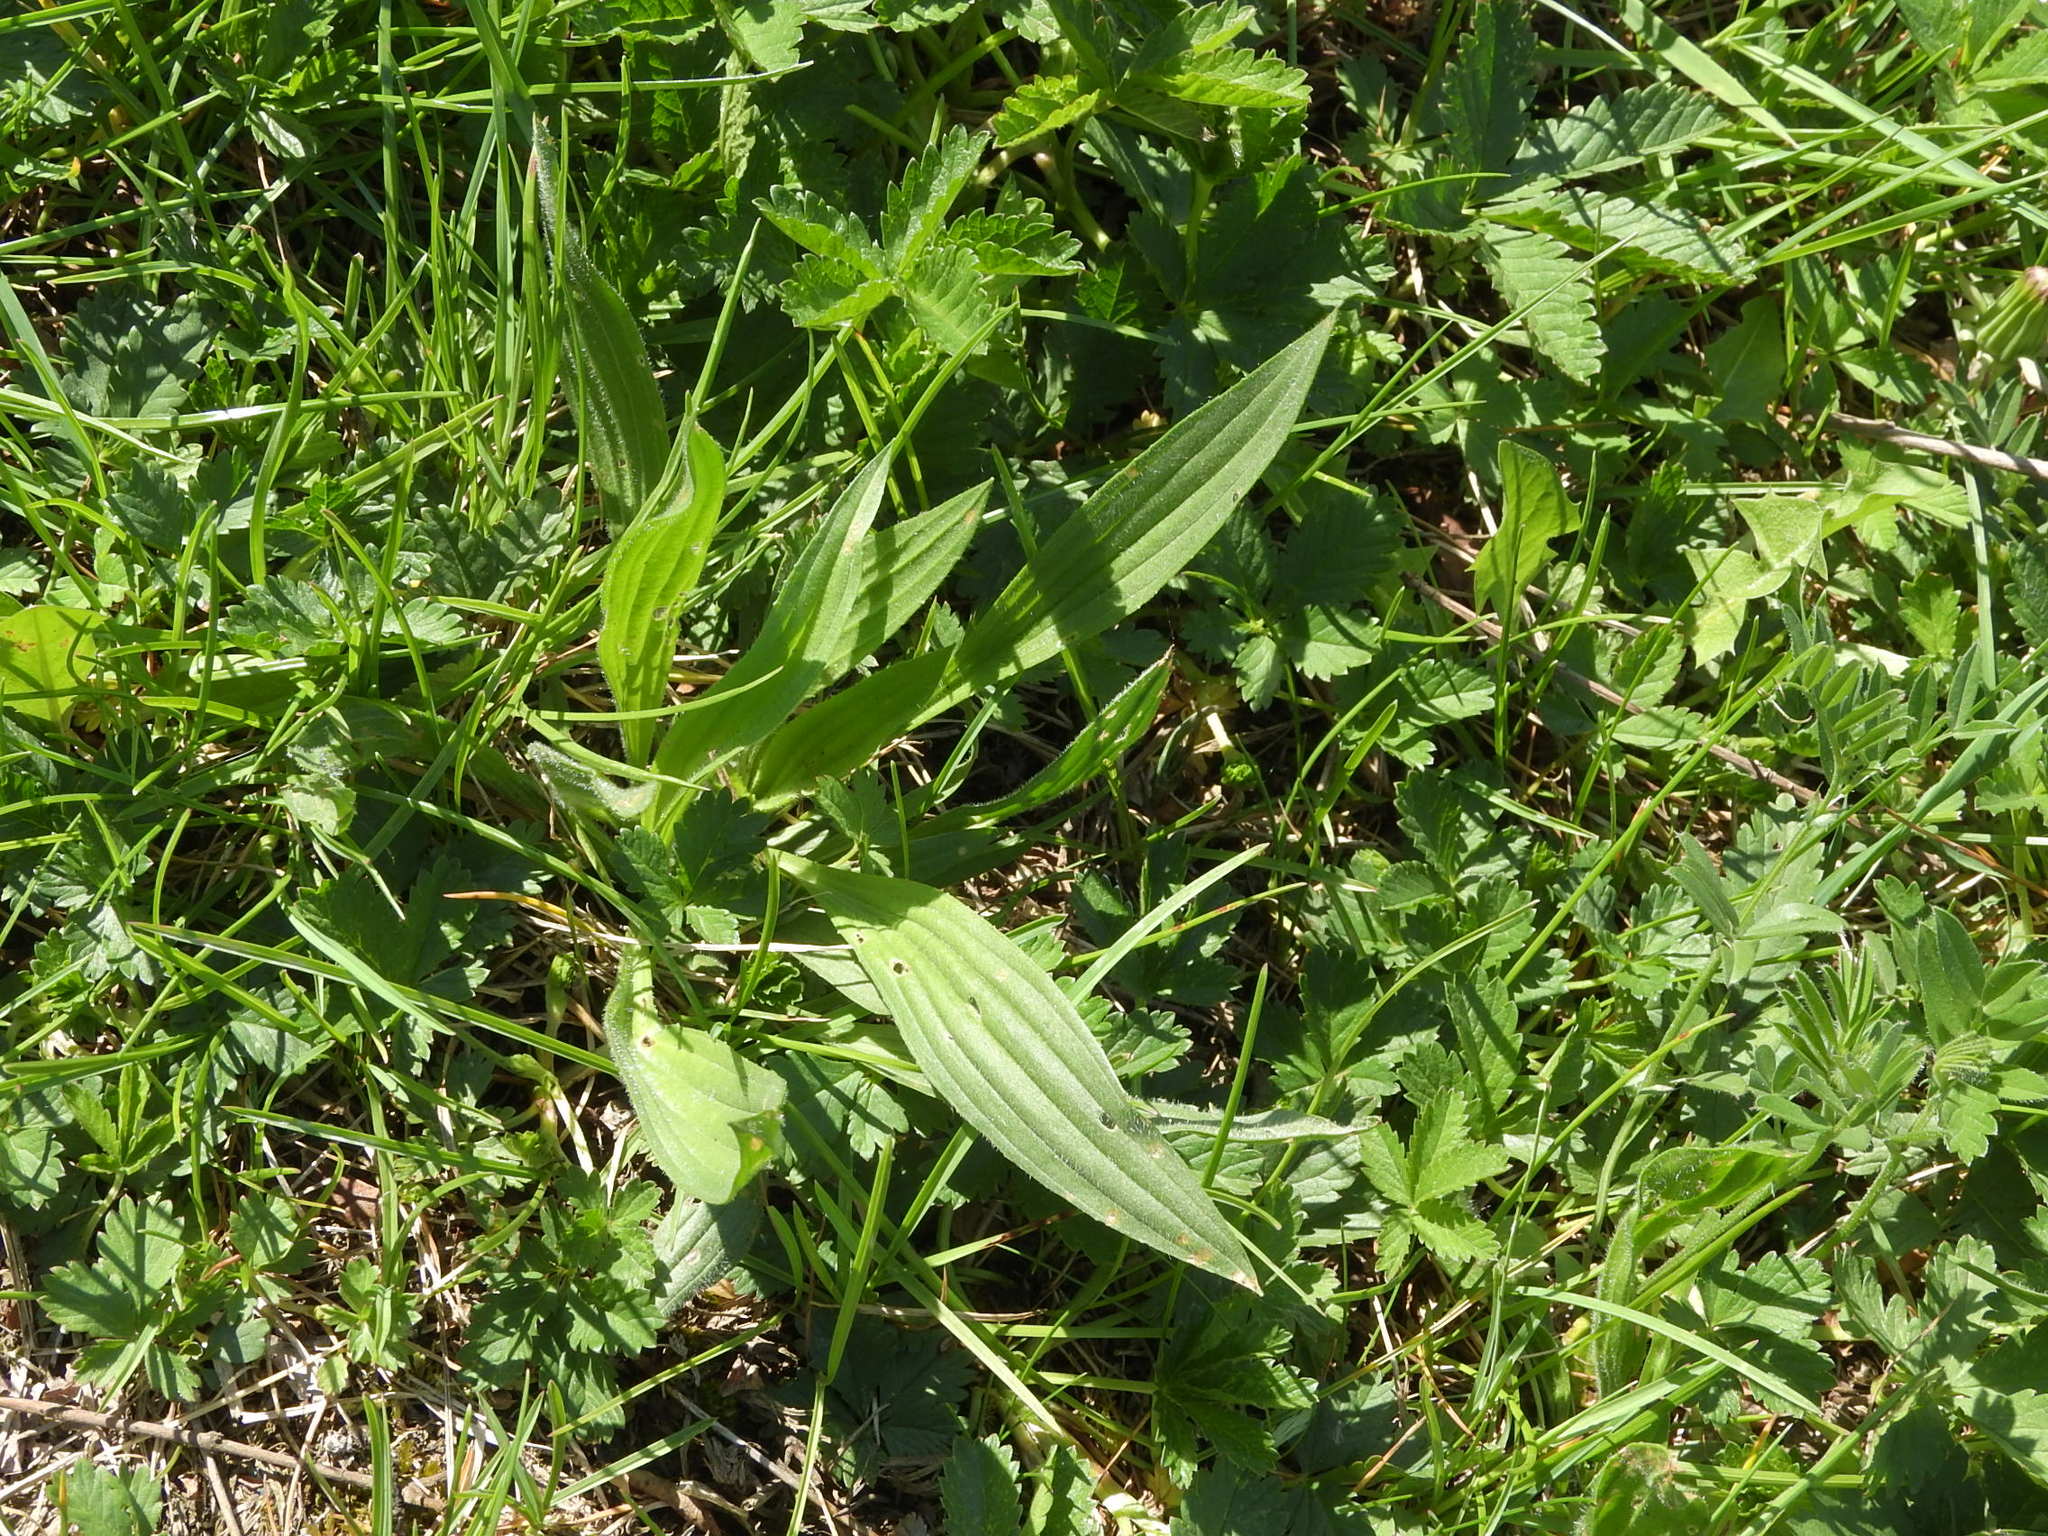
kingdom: Plantae
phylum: Tracheophyta
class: Magnoliopsida
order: Lamiales
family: Plantaginaceae
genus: Plantago
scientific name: Plantago lanceolata
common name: Ribwort plantain
